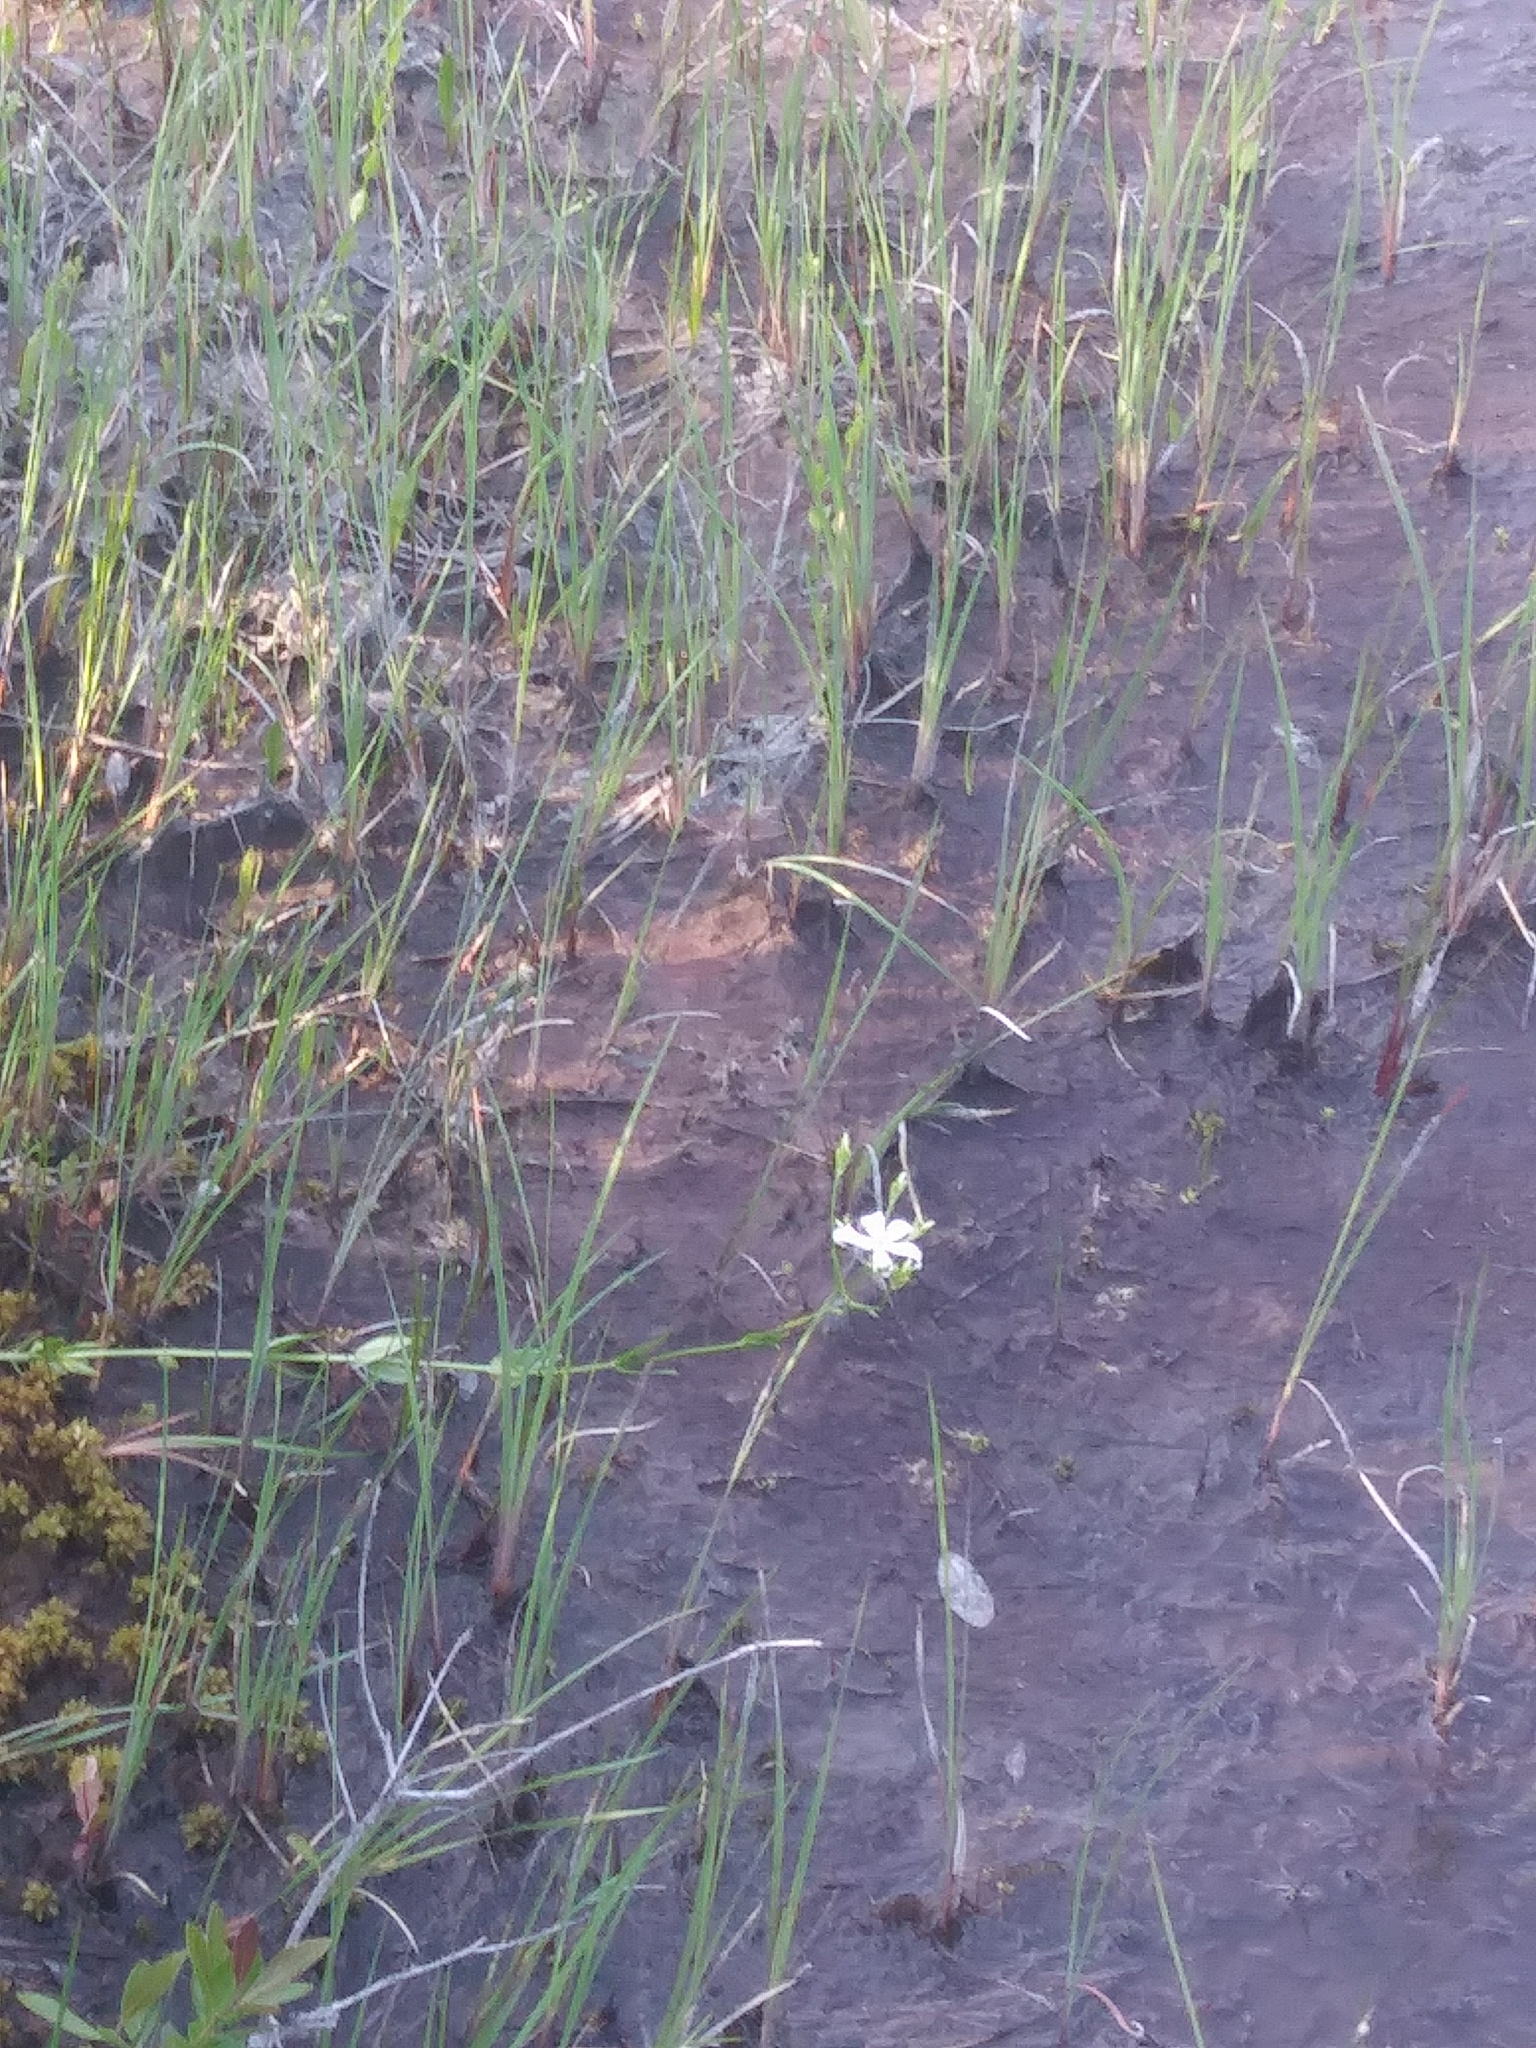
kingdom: Plantae
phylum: Tracheophyta
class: Magnoliopsida
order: Gentianales
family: Gentianaceae
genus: Sabatia
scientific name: Sabatia difformis
